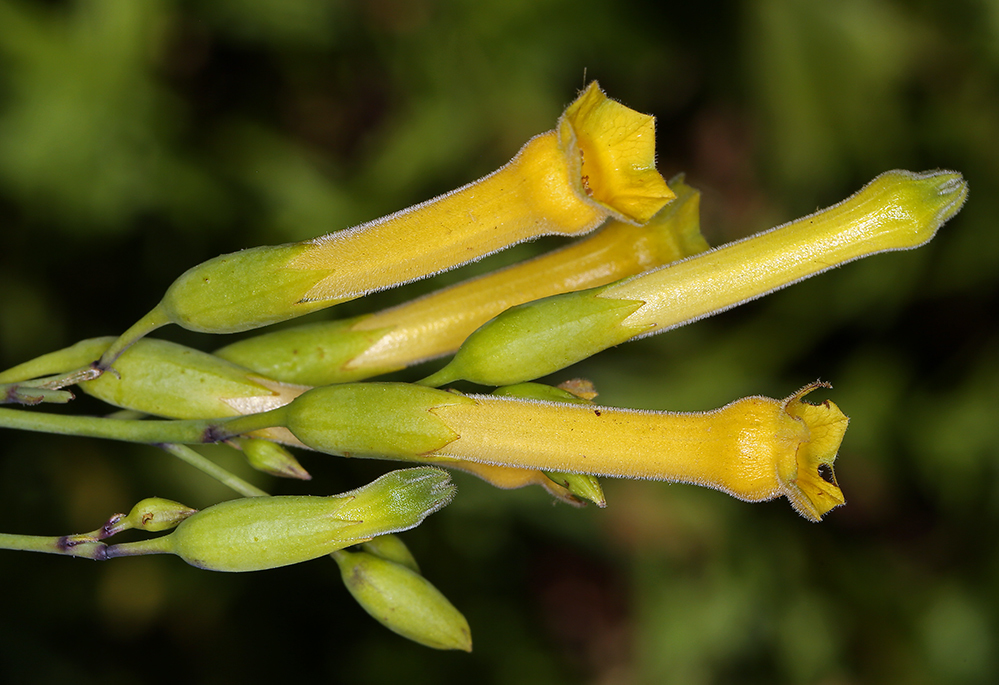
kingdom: Plantae
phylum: Tracheophyta
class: Magnoliopsida
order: Solanales
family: Solanaceae
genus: Nicotiana
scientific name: Nicotiana glauca
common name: Tree tobacco
